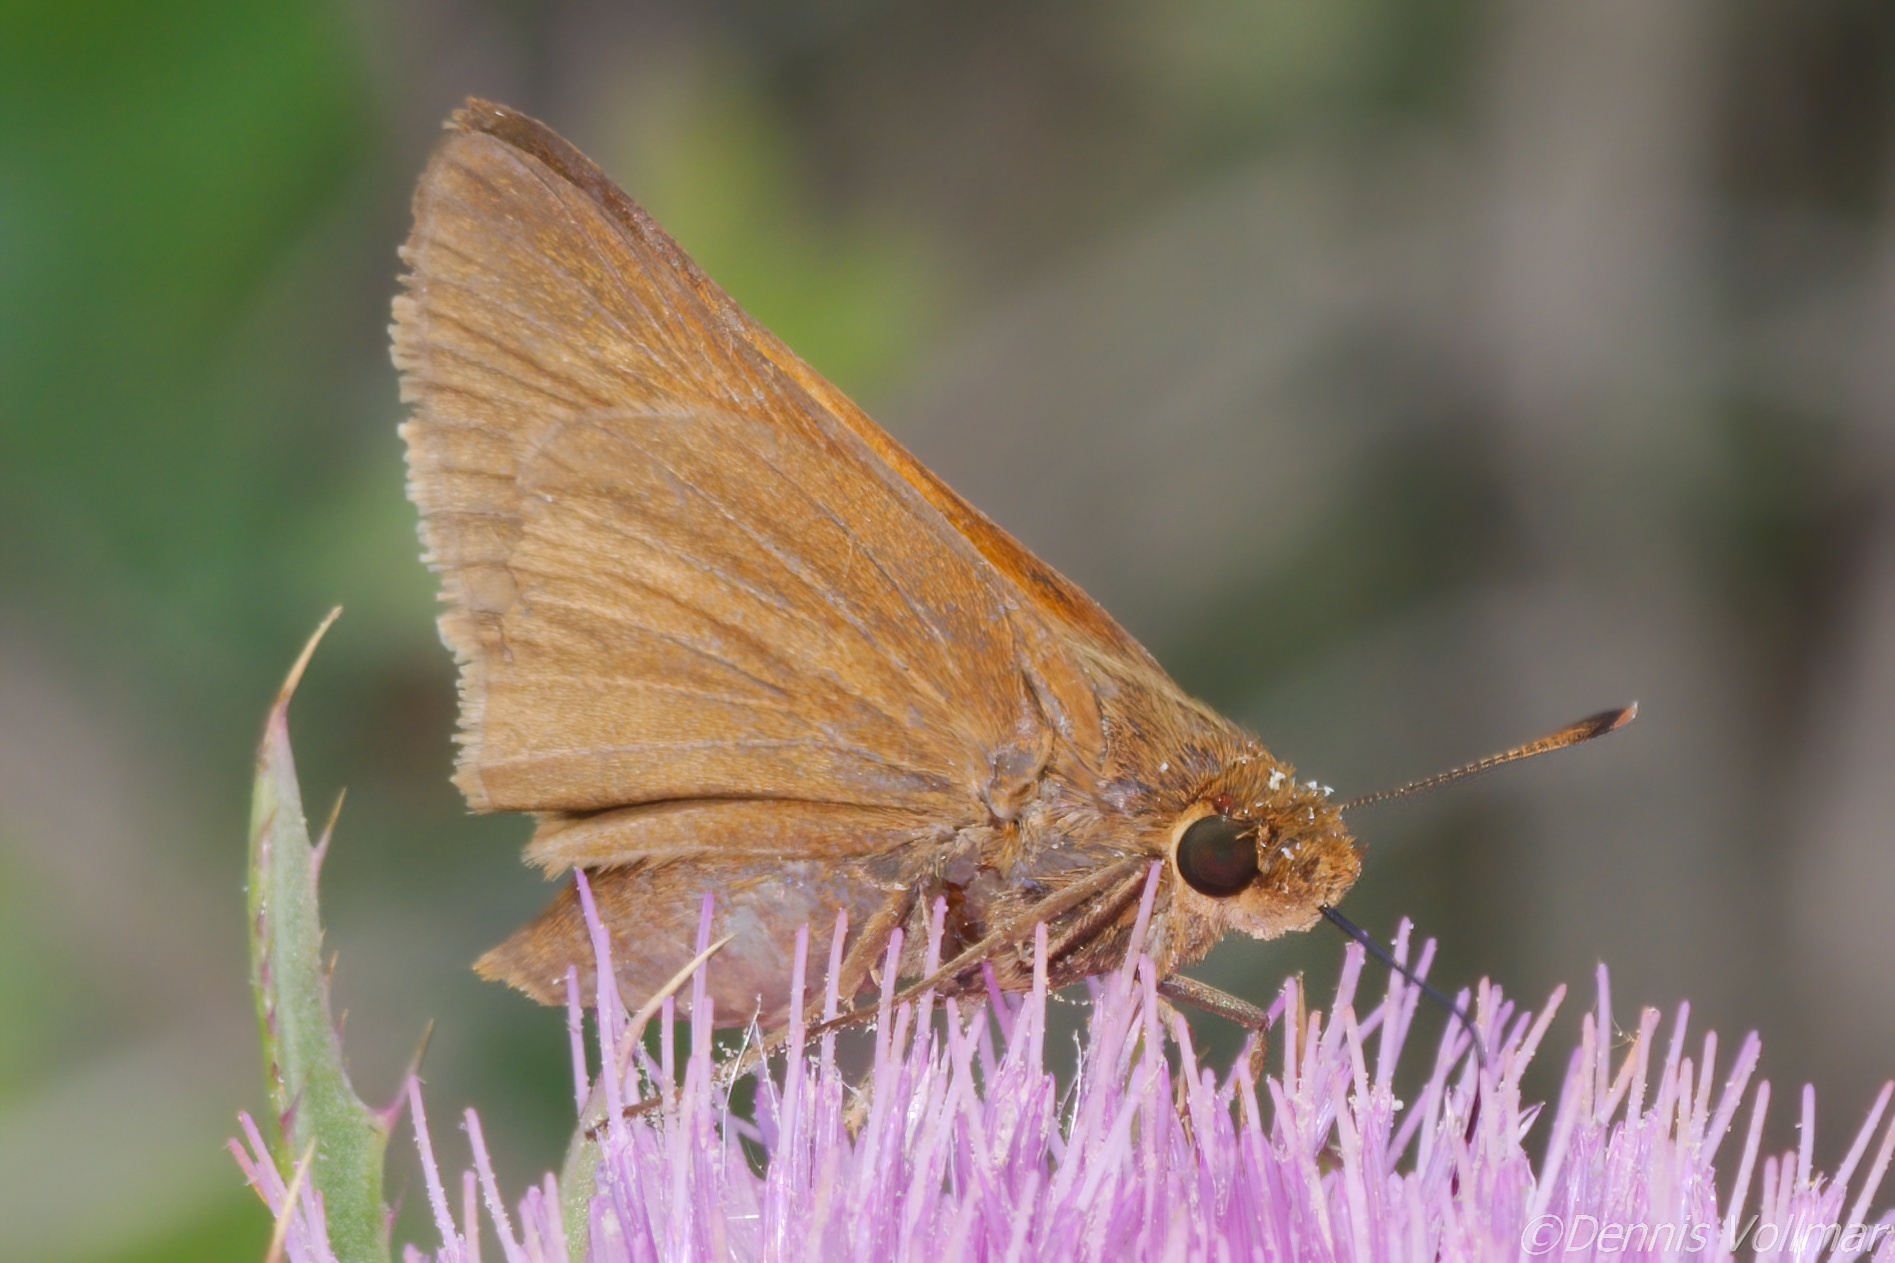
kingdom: Animalia
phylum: Arthropoda
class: Insecta
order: Lepidoptera
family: Hesperiidae
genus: Euphyes
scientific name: Euphyes pilatka
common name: Palatka skipper
